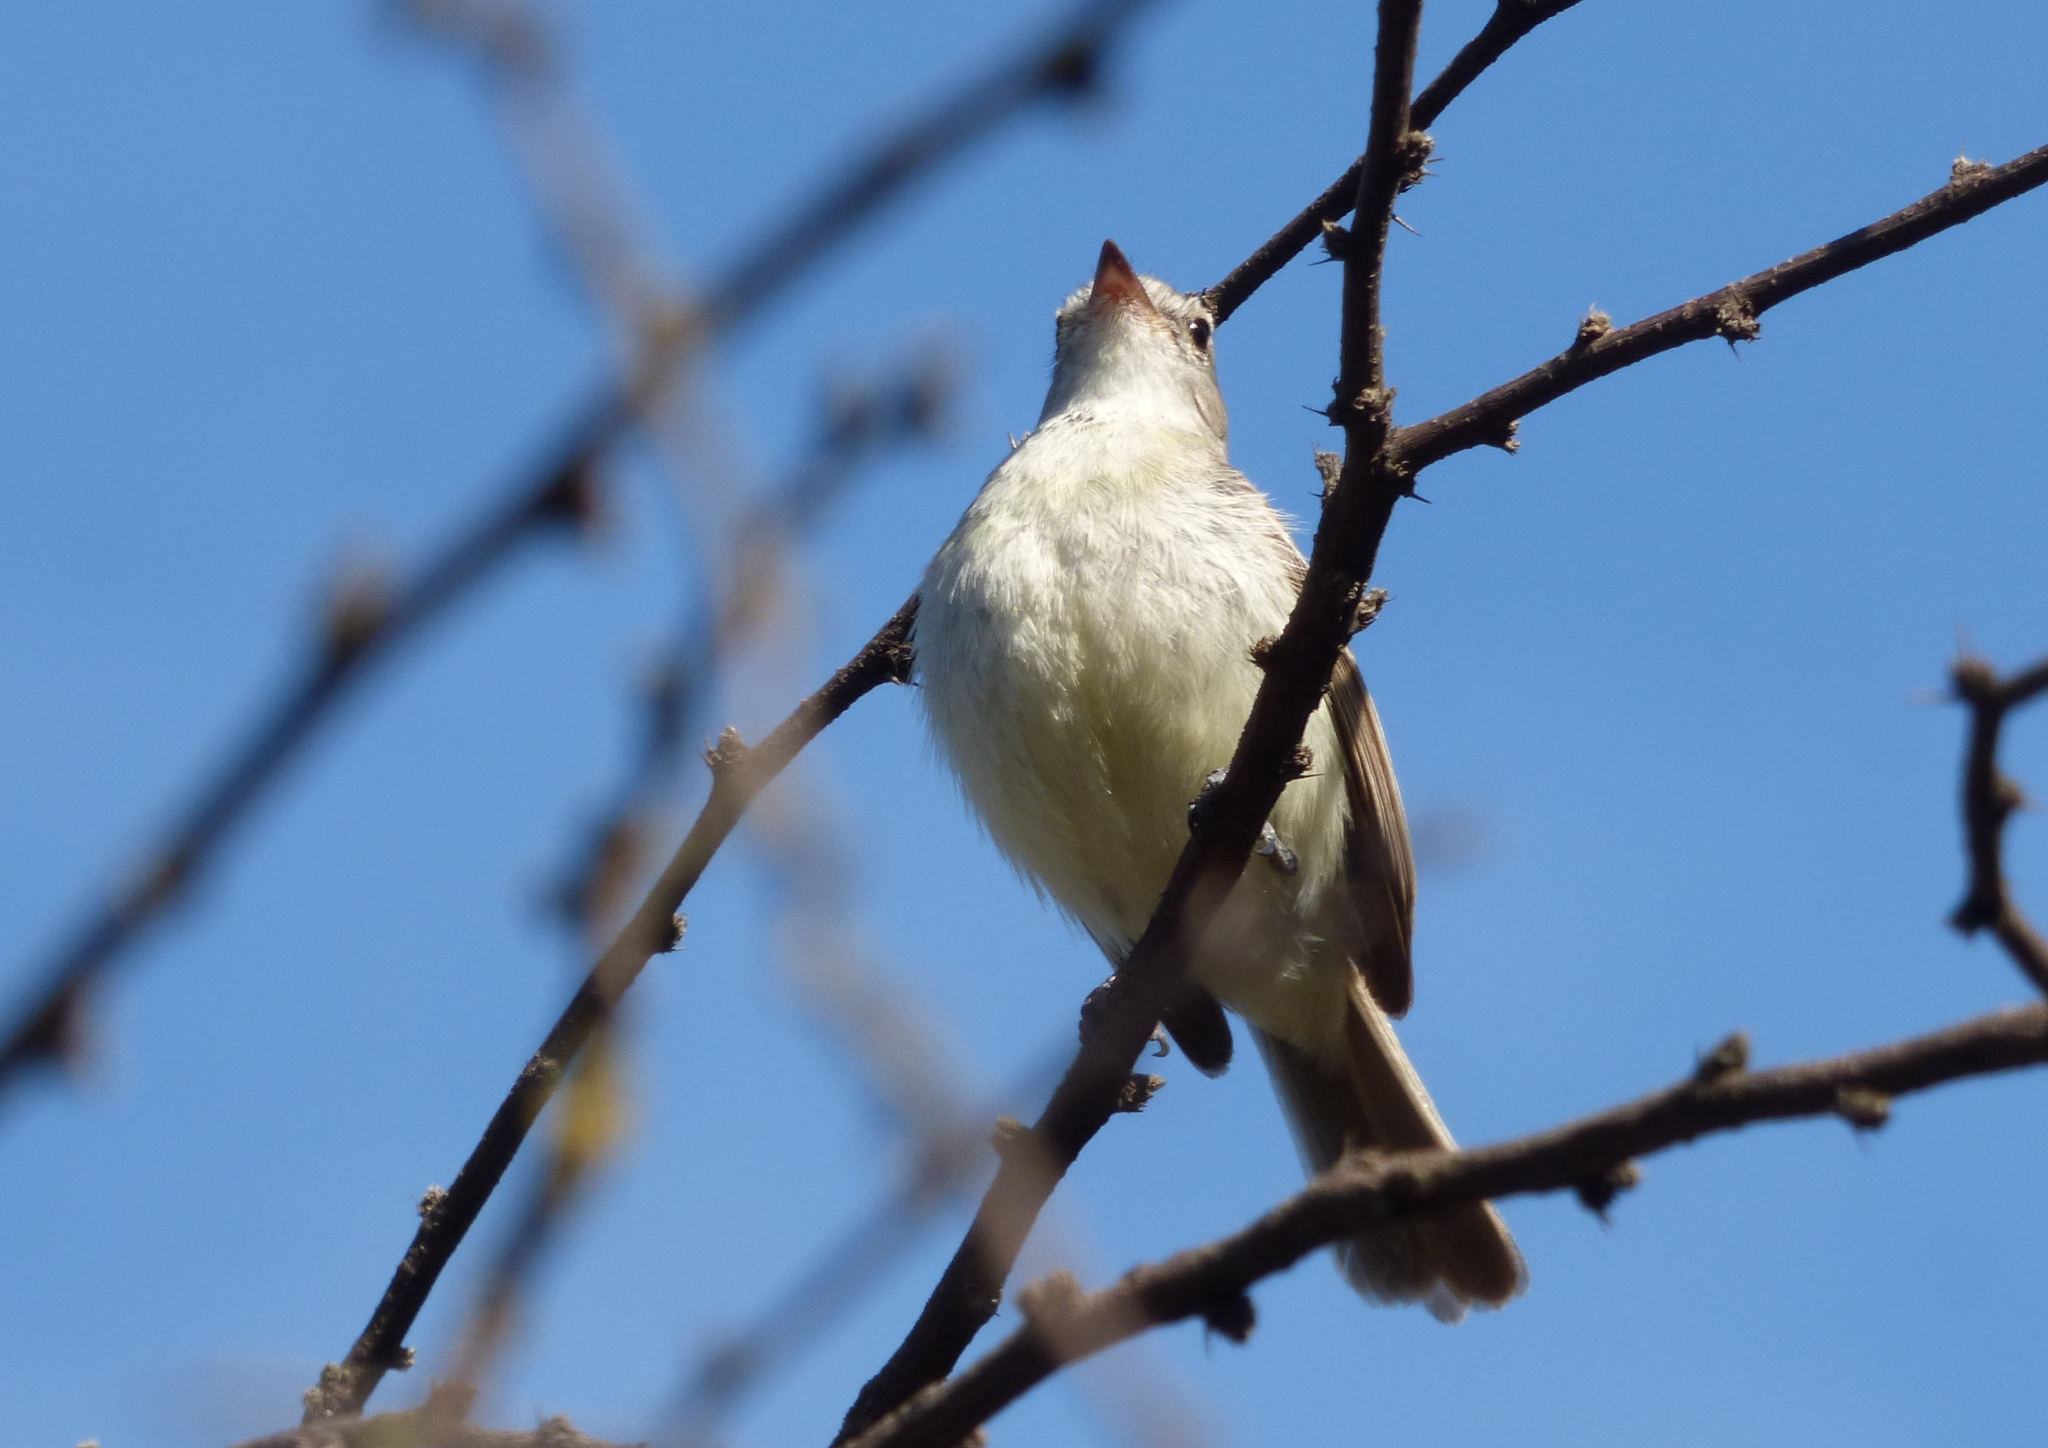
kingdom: Animalia
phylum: Chordata
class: Aves
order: Passeriformes
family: Tyrannidae
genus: Phaeomyias
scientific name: Phaeomyias murina
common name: Mouse-colored tyrannulet
